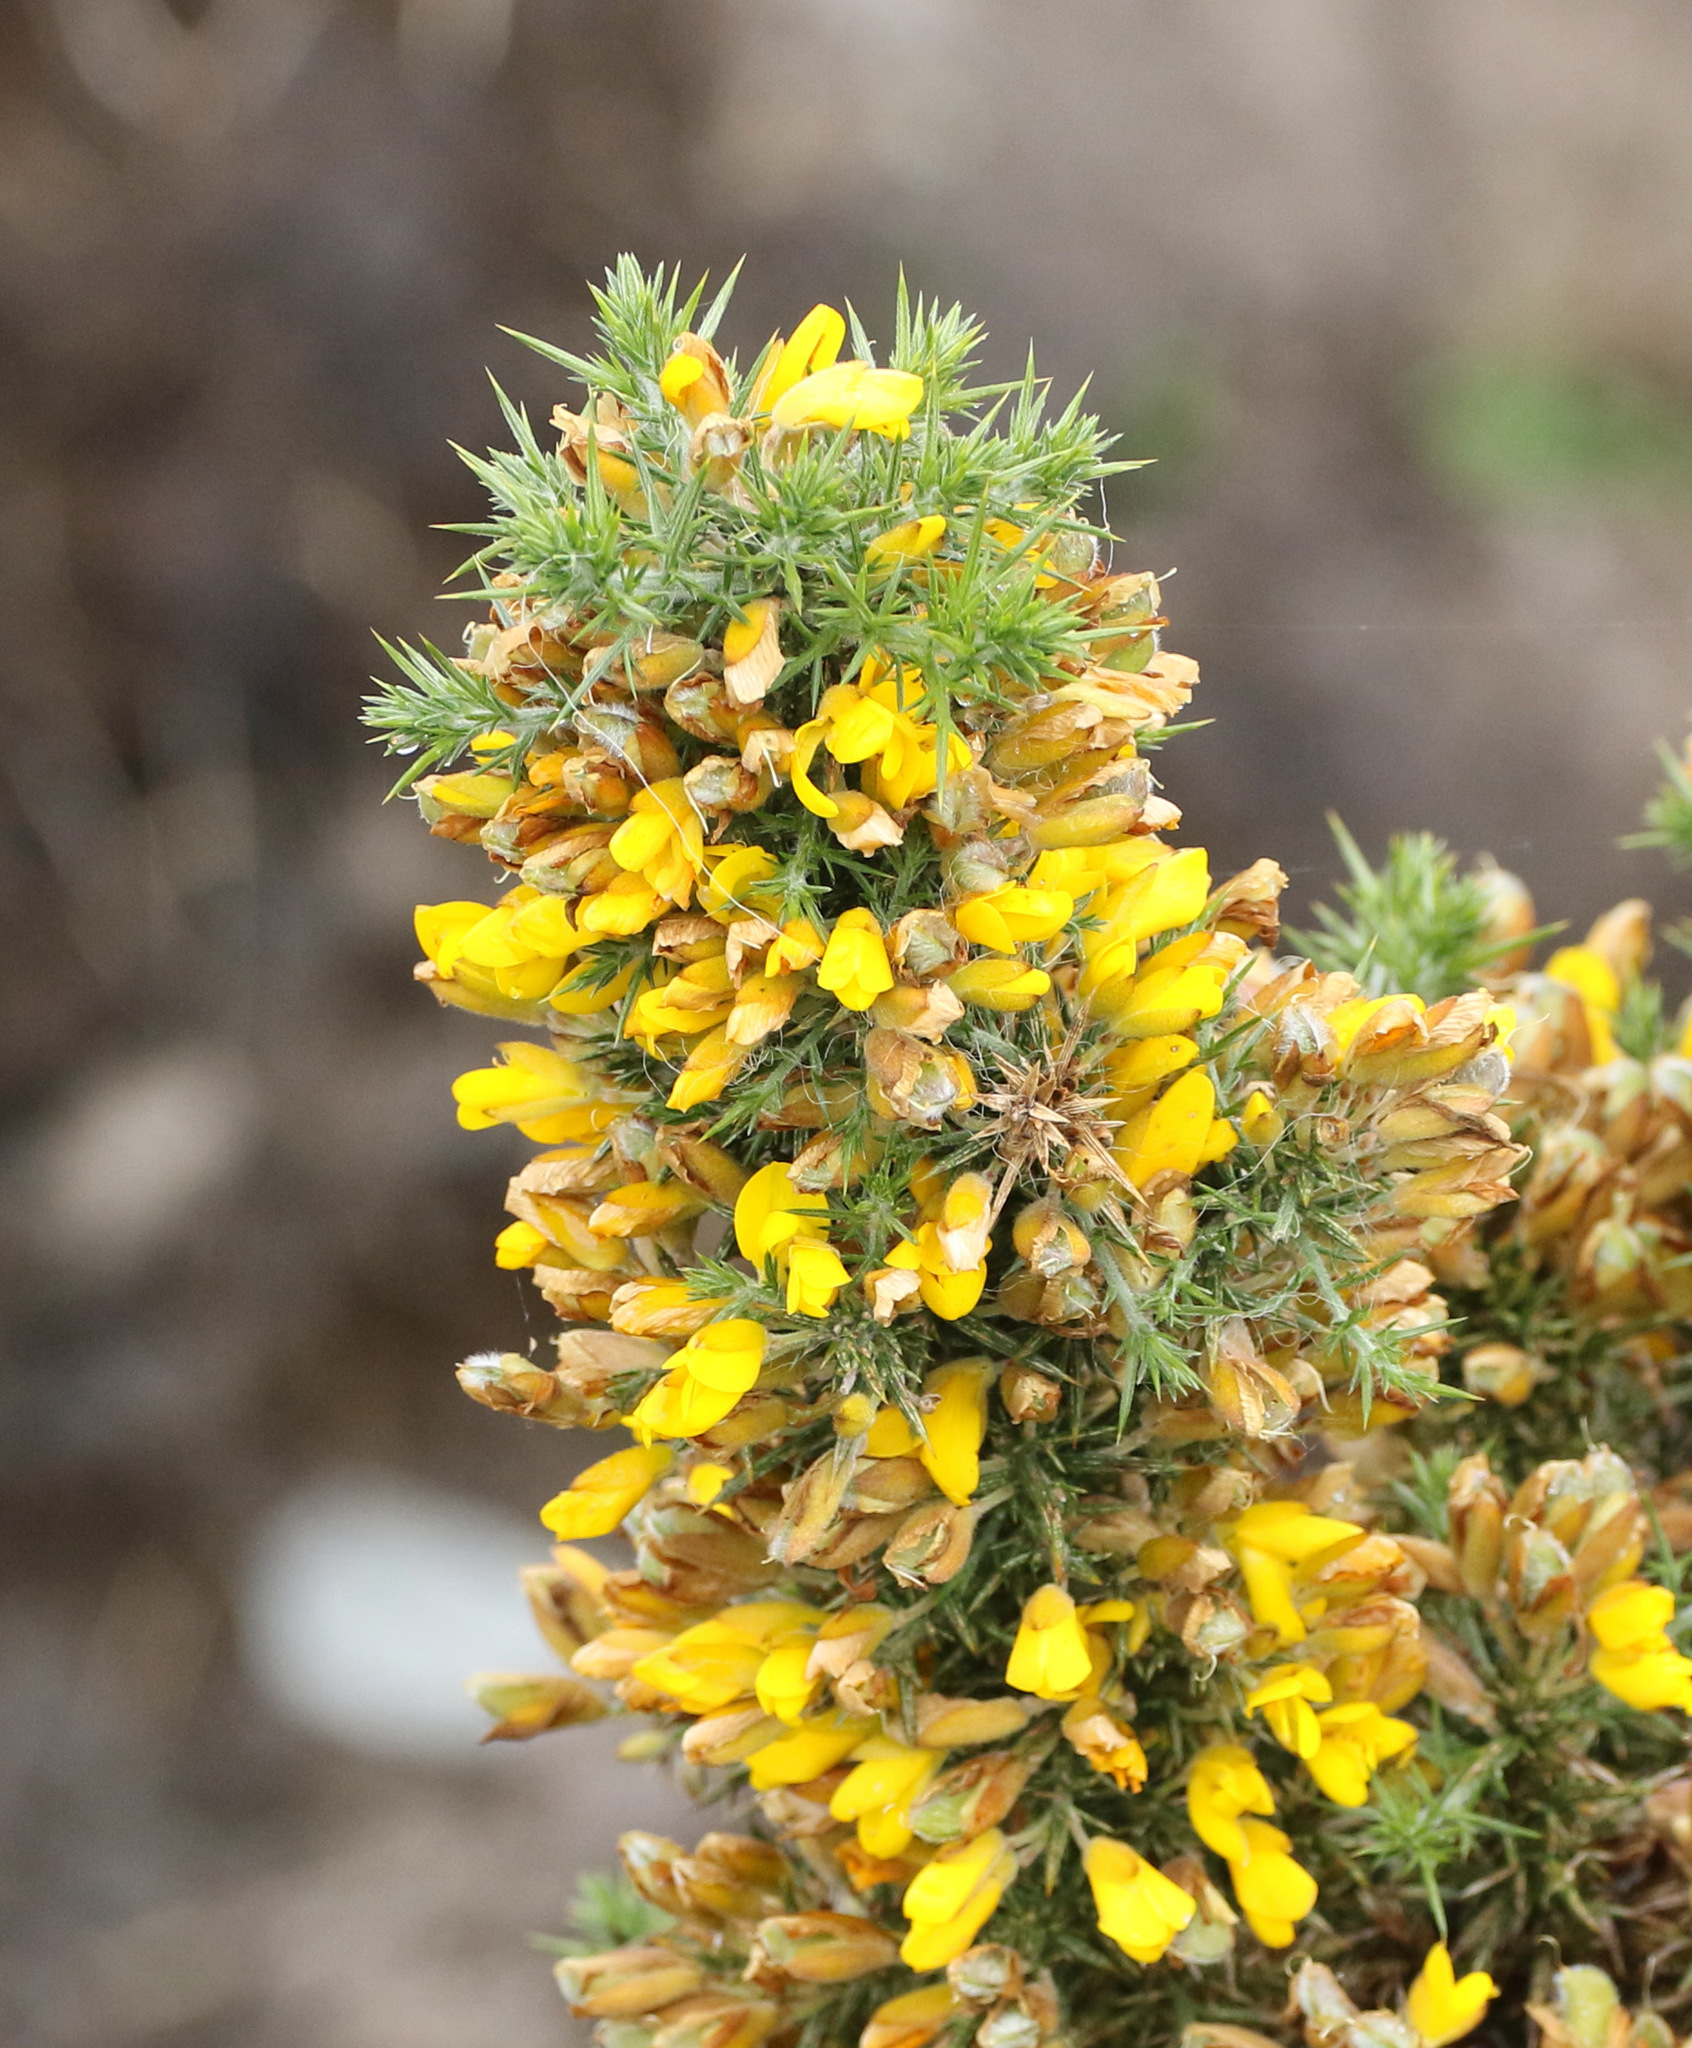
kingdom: Plantae
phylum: Tracheophyta
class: Magnoliopsida
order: Fabales
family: Fabaceae
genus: Ulex
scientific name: Ulex europaeus
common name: Common gorse
